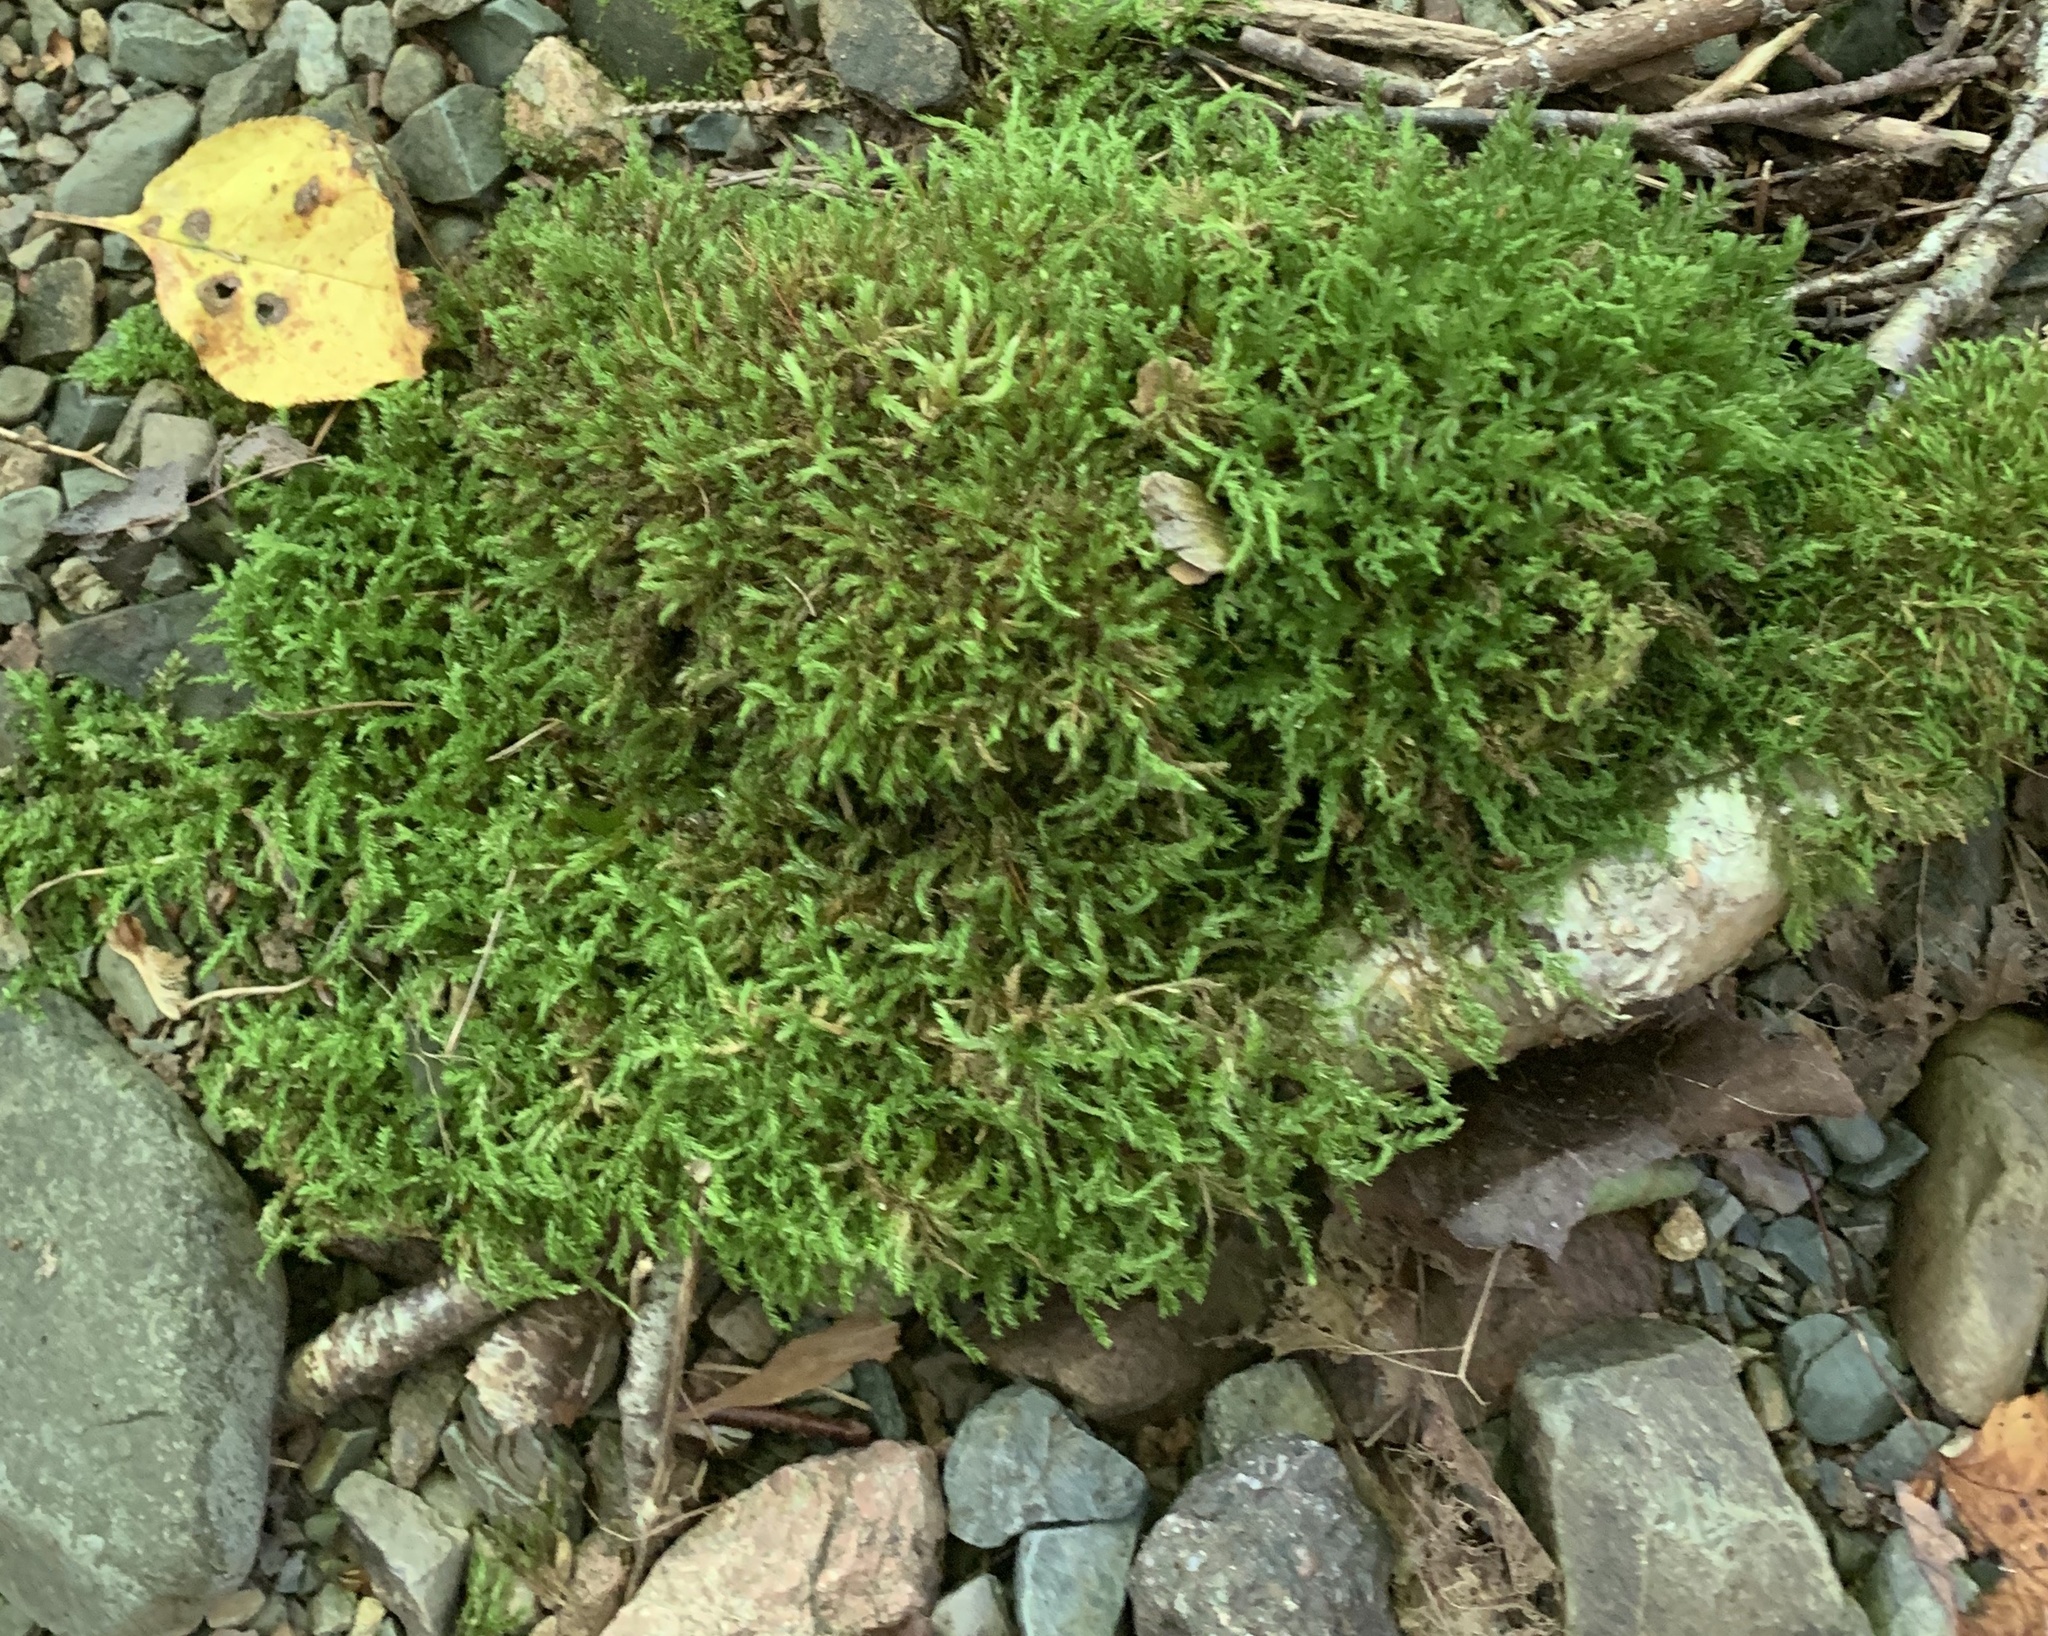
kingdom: Plantae
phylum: Bryophyta
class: Bryopsida
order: Hypnales
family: Neckeraceae
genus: Pseudanomodon
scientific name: Pseudanomodon attenuatus
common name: Tree-skirt moss
